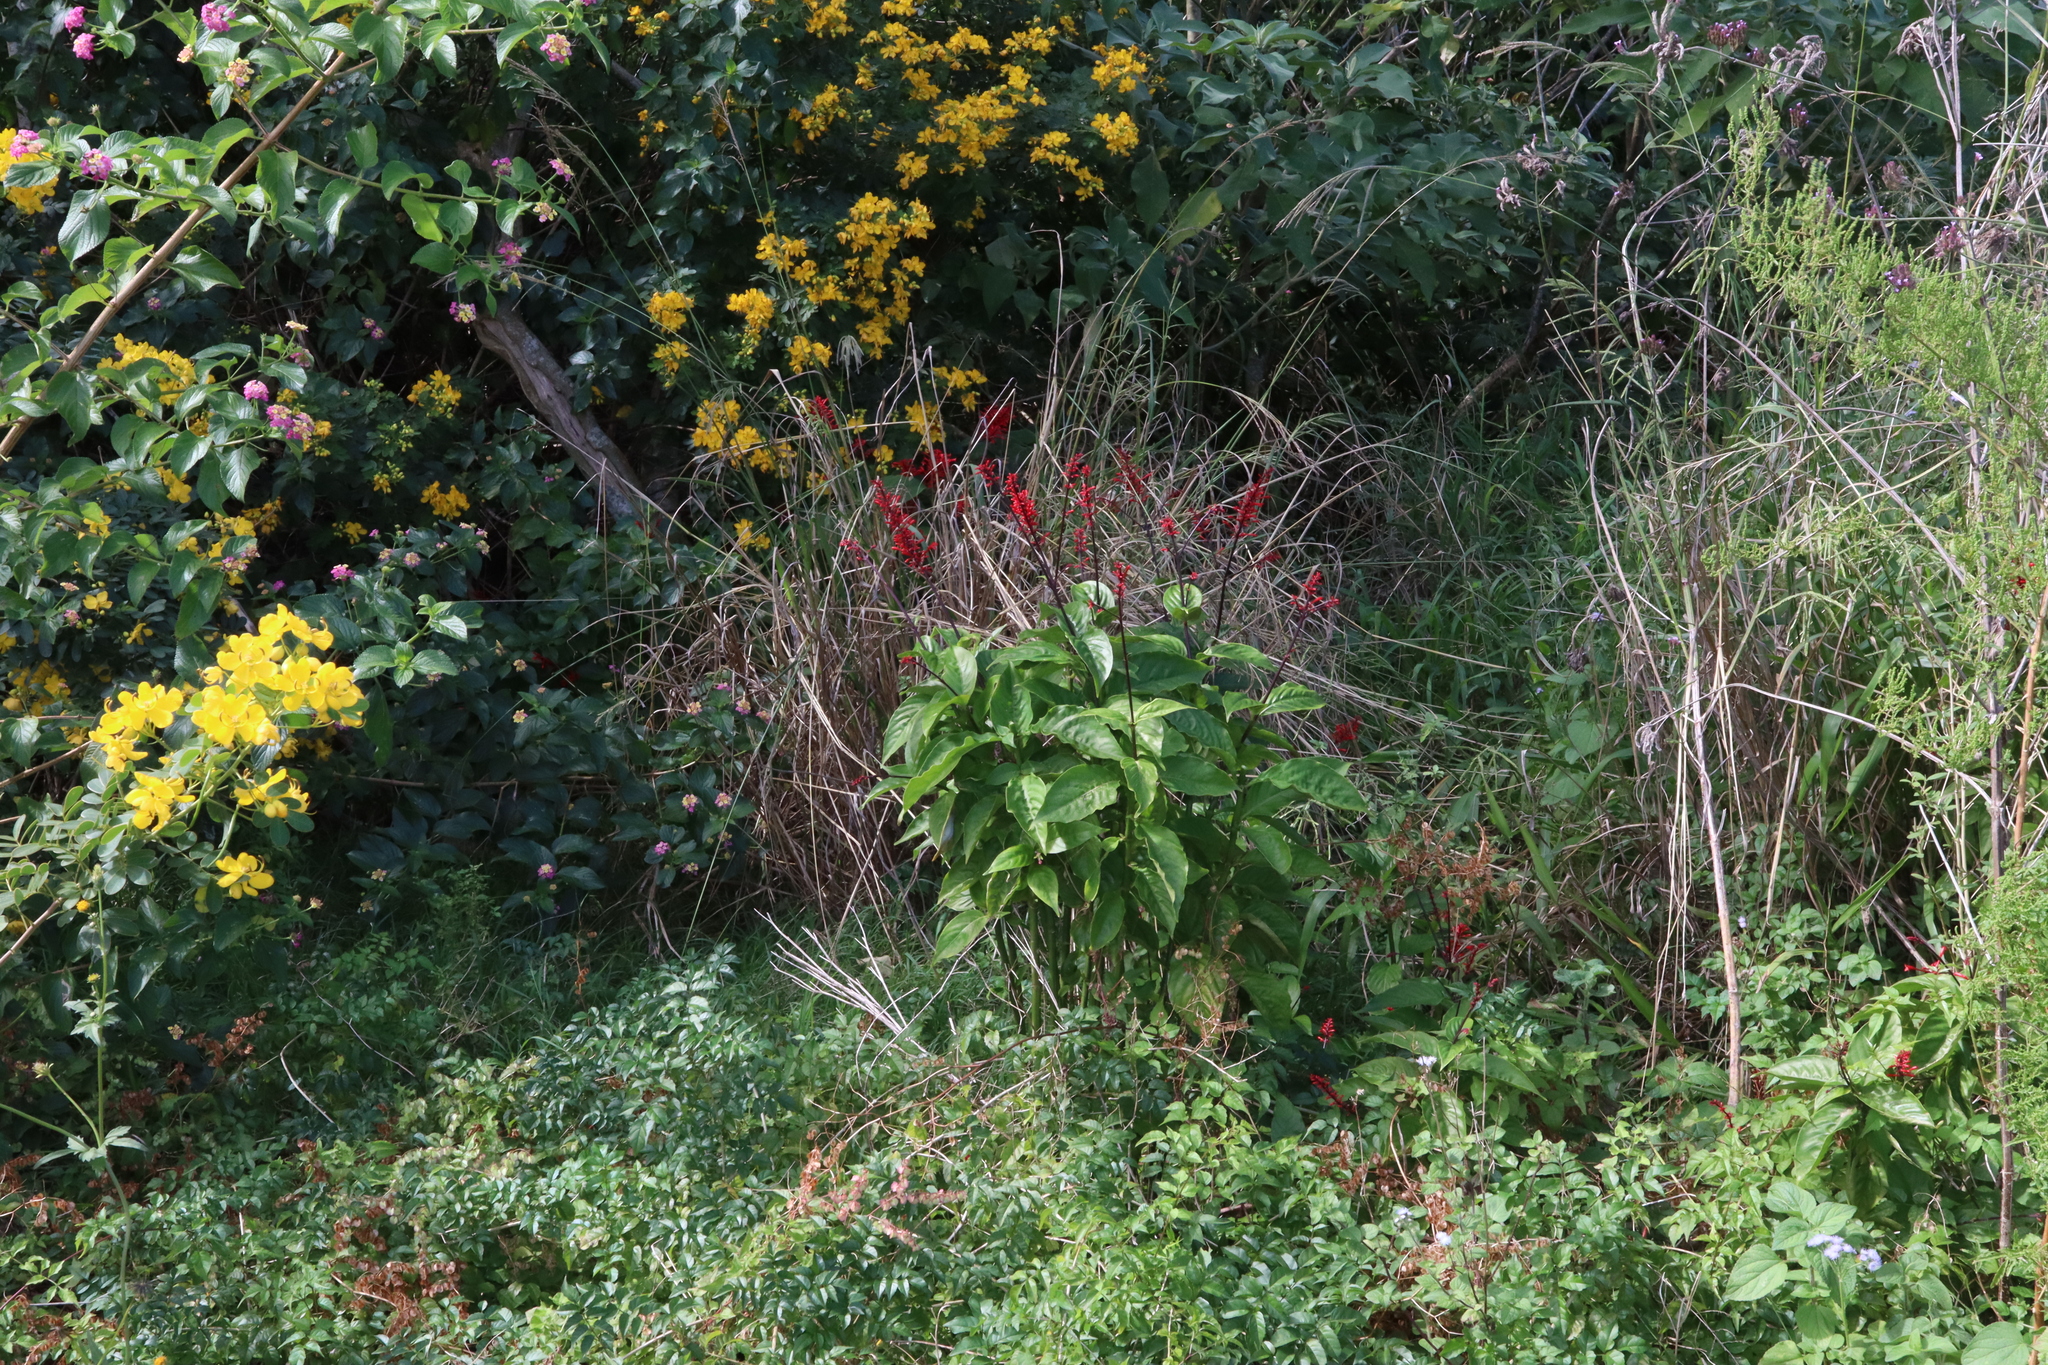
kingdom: Plantae
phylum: Tracheophyta
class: Magnoliopsida
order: Lamiales
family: Acanthaceae
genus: Odontonema
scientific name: Odontonema cuspidatum
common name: Mottled toothedthread
